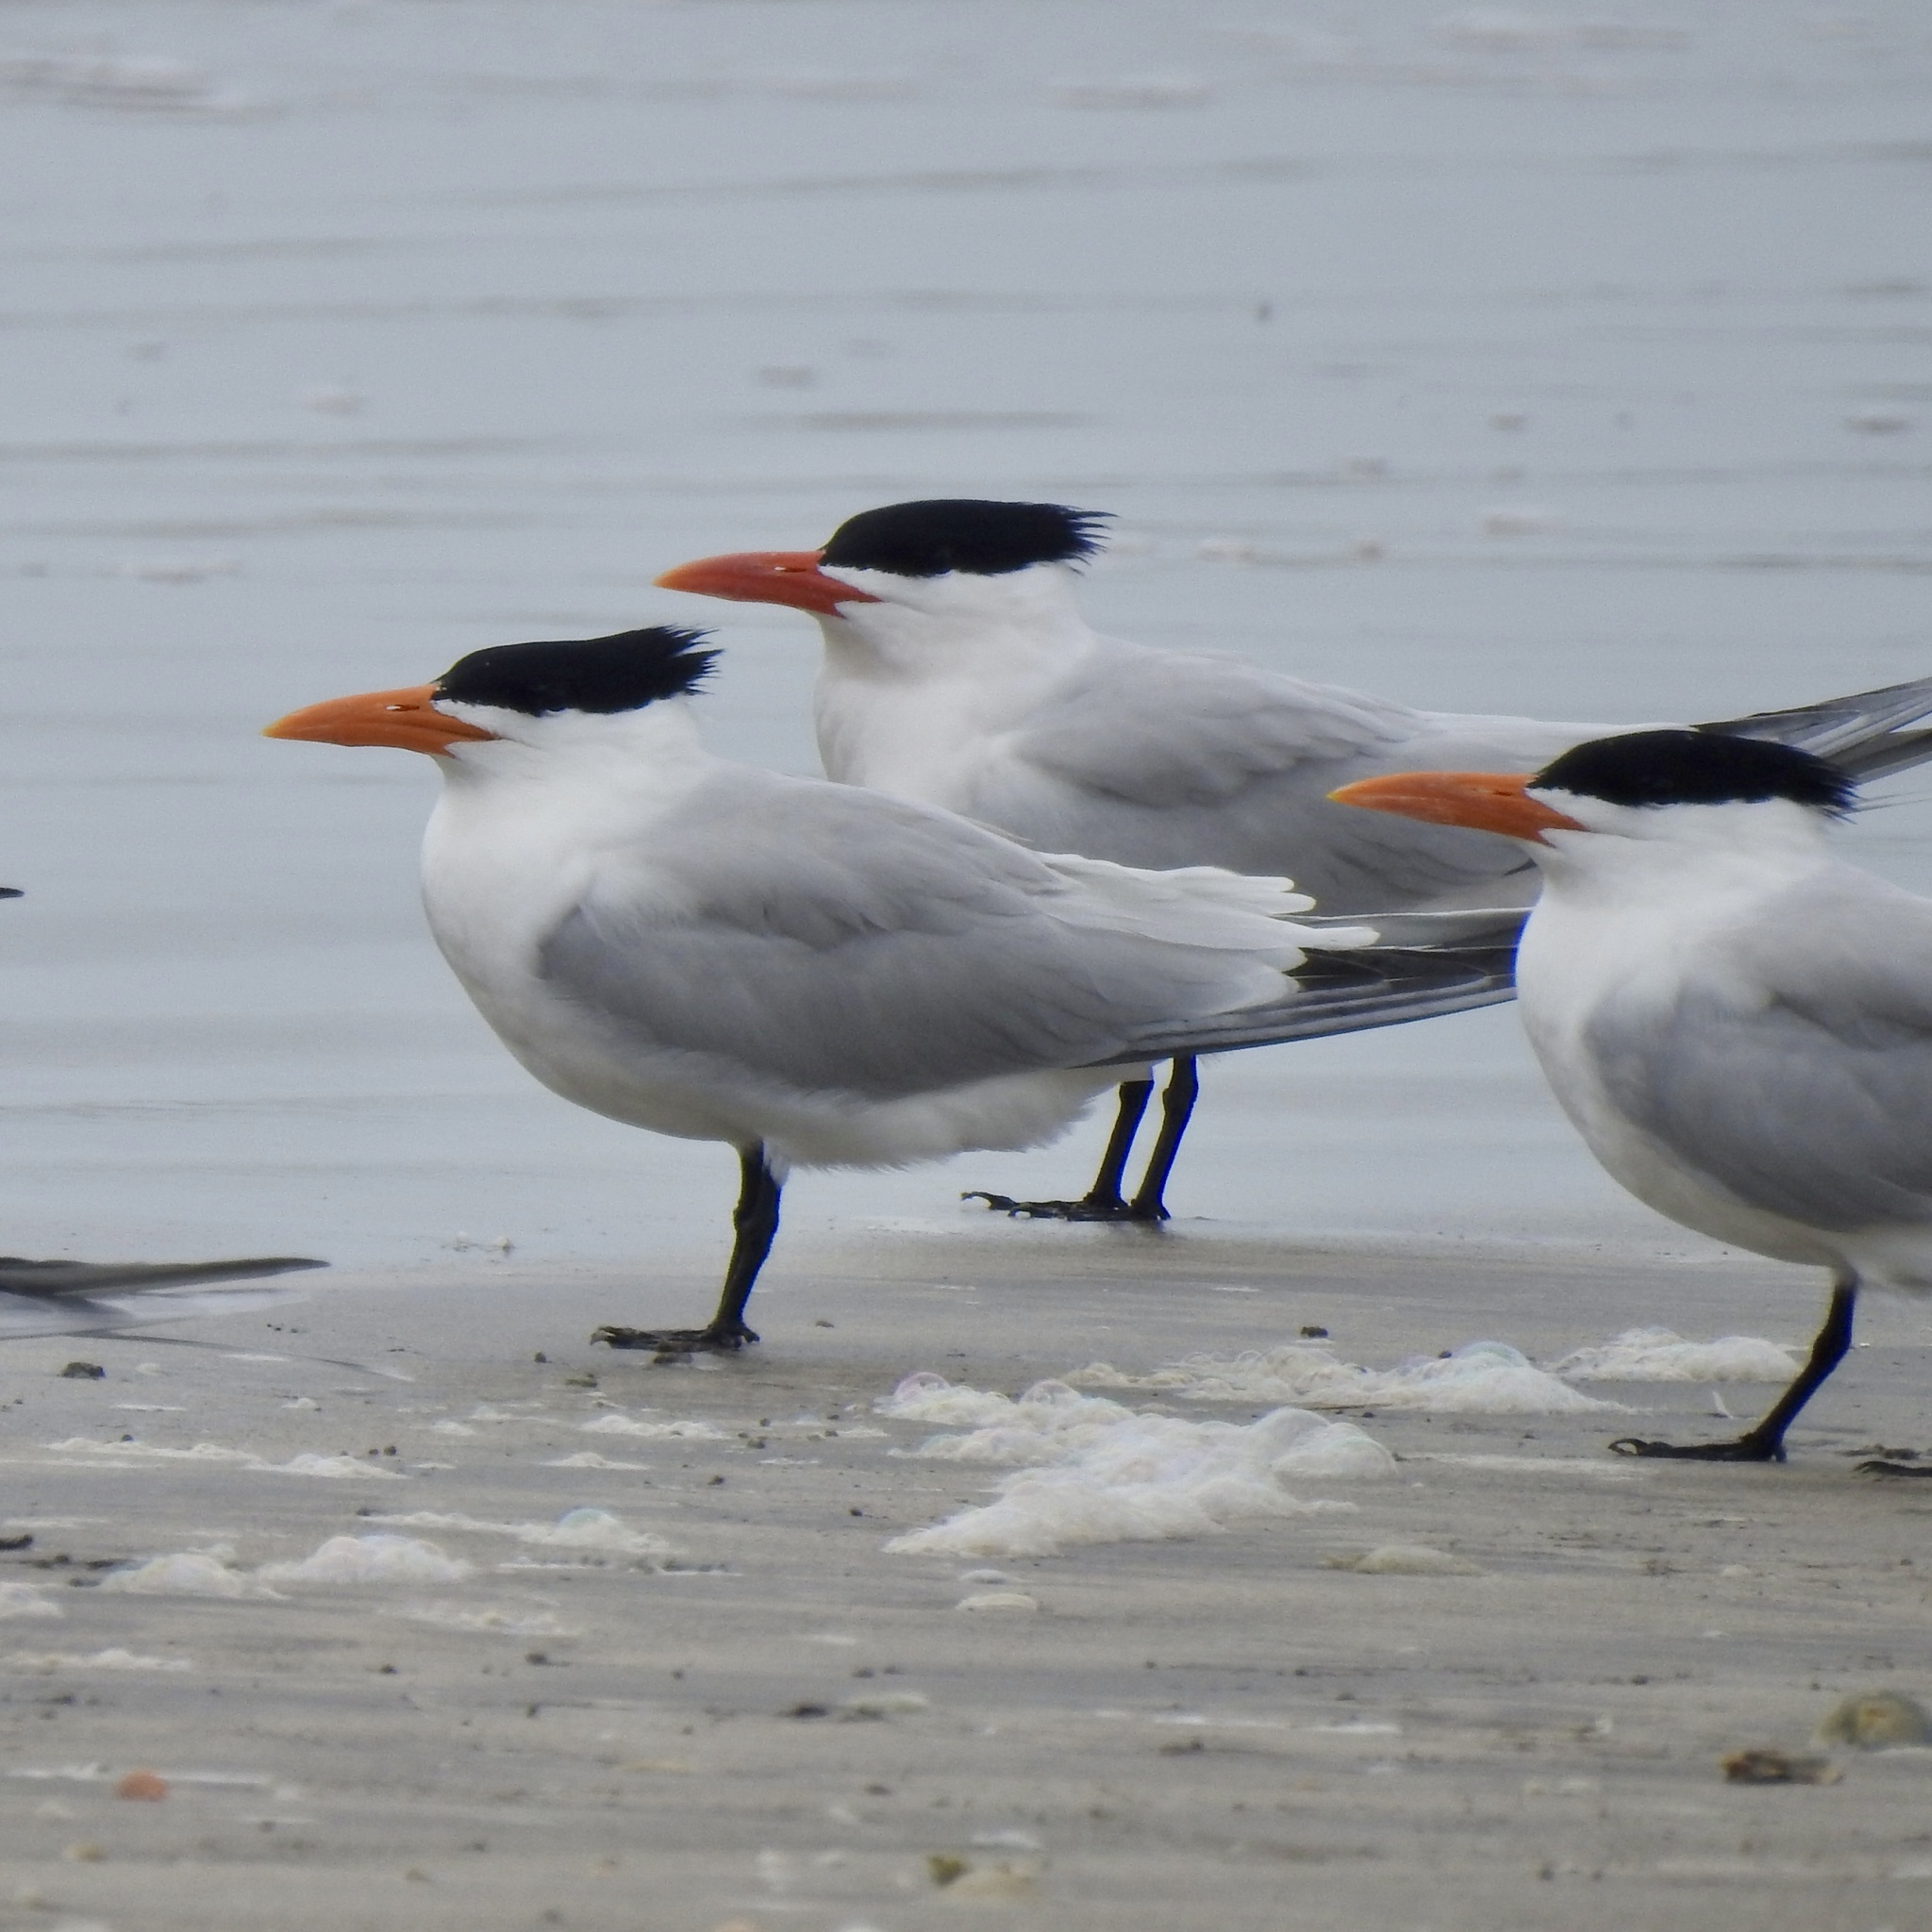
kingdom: Animalia
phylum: Chordata
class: Aves
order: Charadriiformes
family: Laridae
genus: Thalasseus
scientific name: Thalasseus maximus
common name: Royal tern
